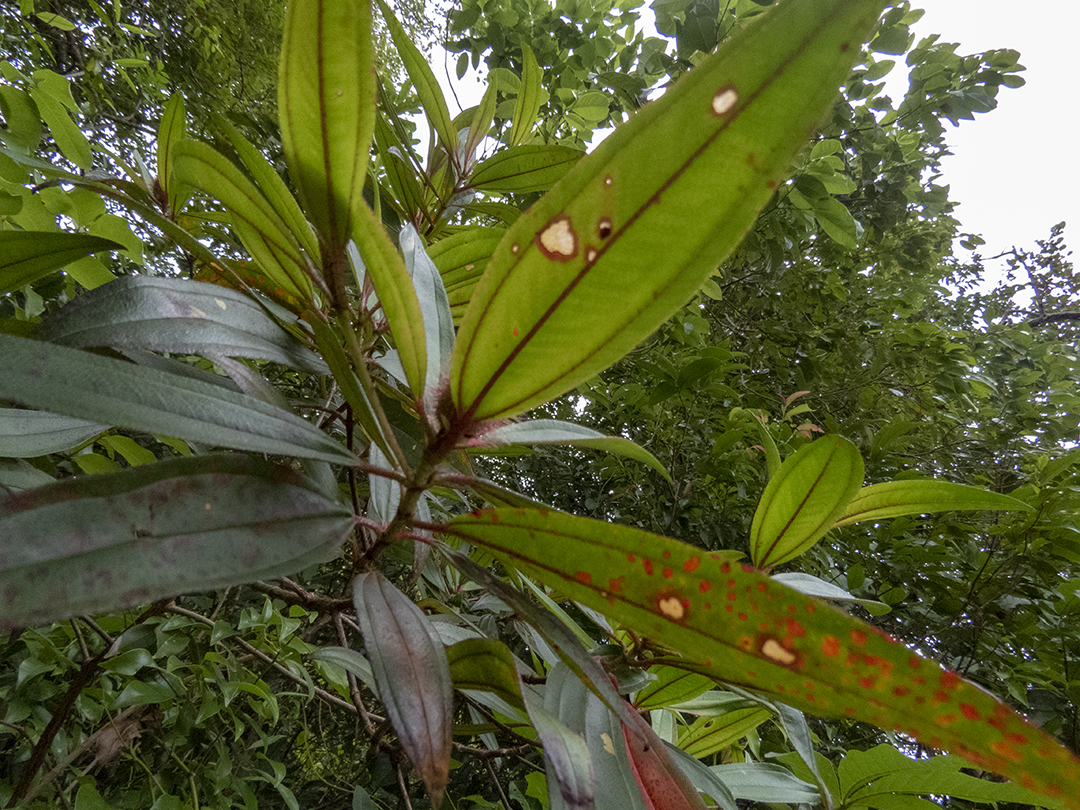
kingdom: Plantae
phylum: Tracheophyta
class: Magnoliopsida
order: Myrtales
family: Melastomataceae
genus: Melastoma
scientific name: Melastoma malabathricum
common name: Indian-rhododendron
